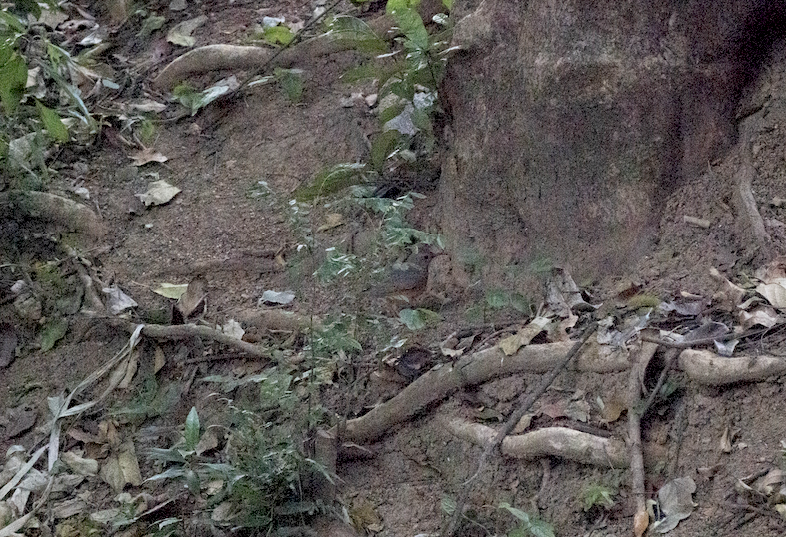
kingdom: Animalia
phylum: Chordata
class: Aves
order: Passeriformes
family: Turdidae
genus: Turdus
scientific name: Turdus hortulorum
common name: Grey-backed thrush
